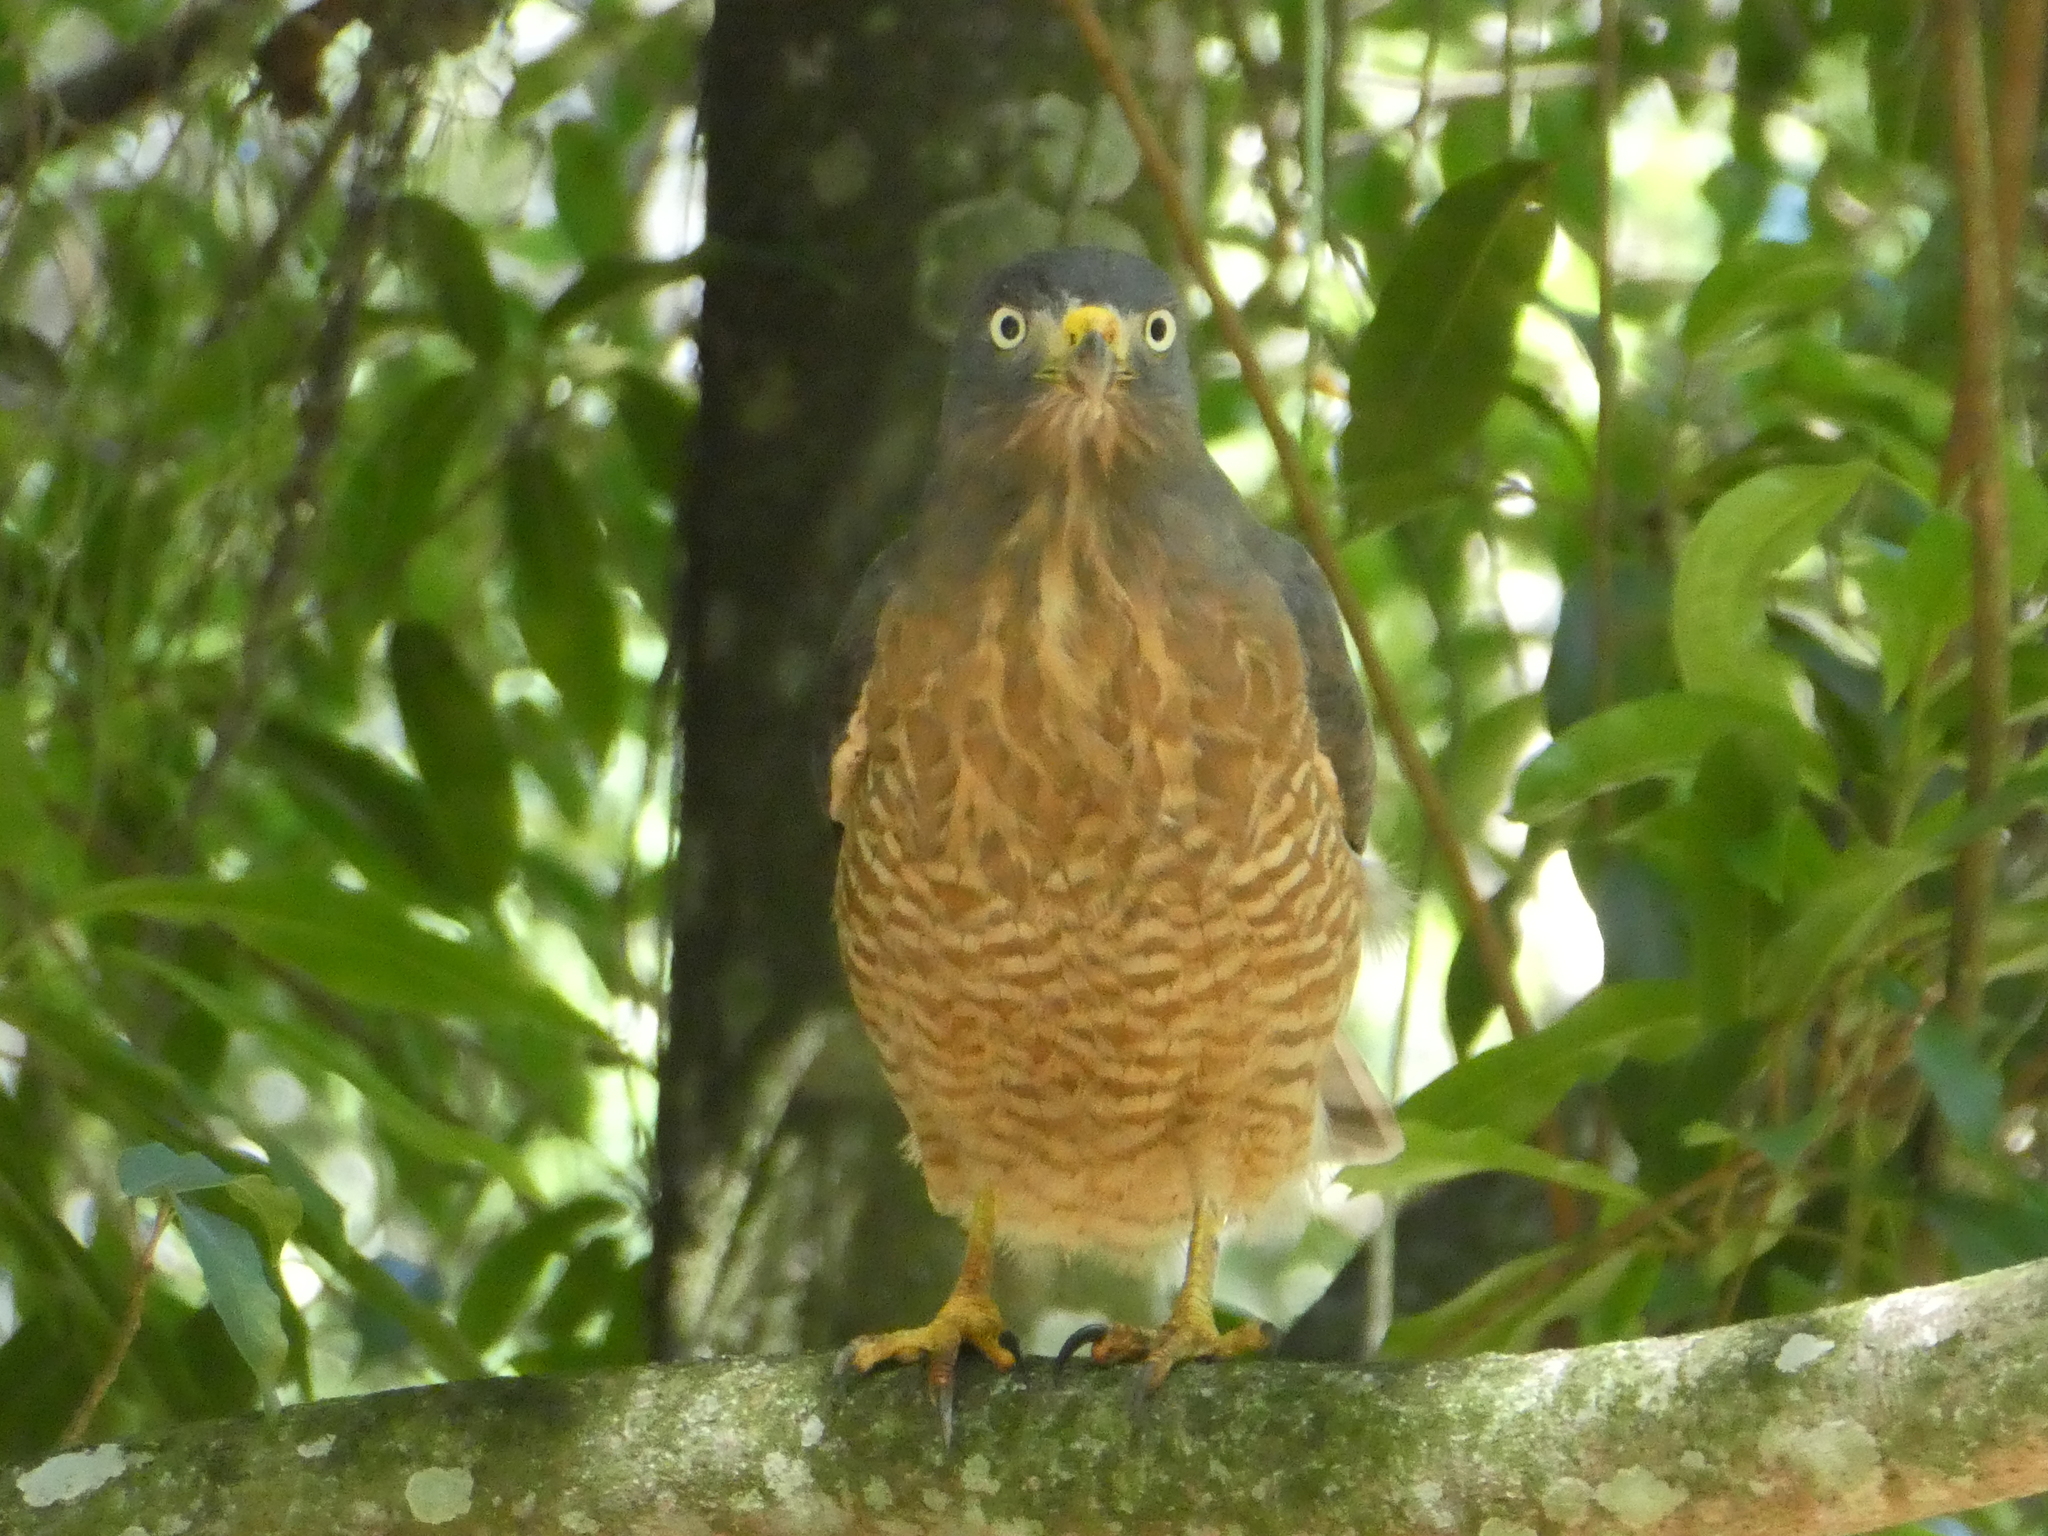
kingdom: Animalia
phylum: Chordata
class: Aves
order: Accipitriformes
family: Accipitridae
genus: Rupornis
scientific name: Rupornis magnirostris
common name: Roadside hawk
